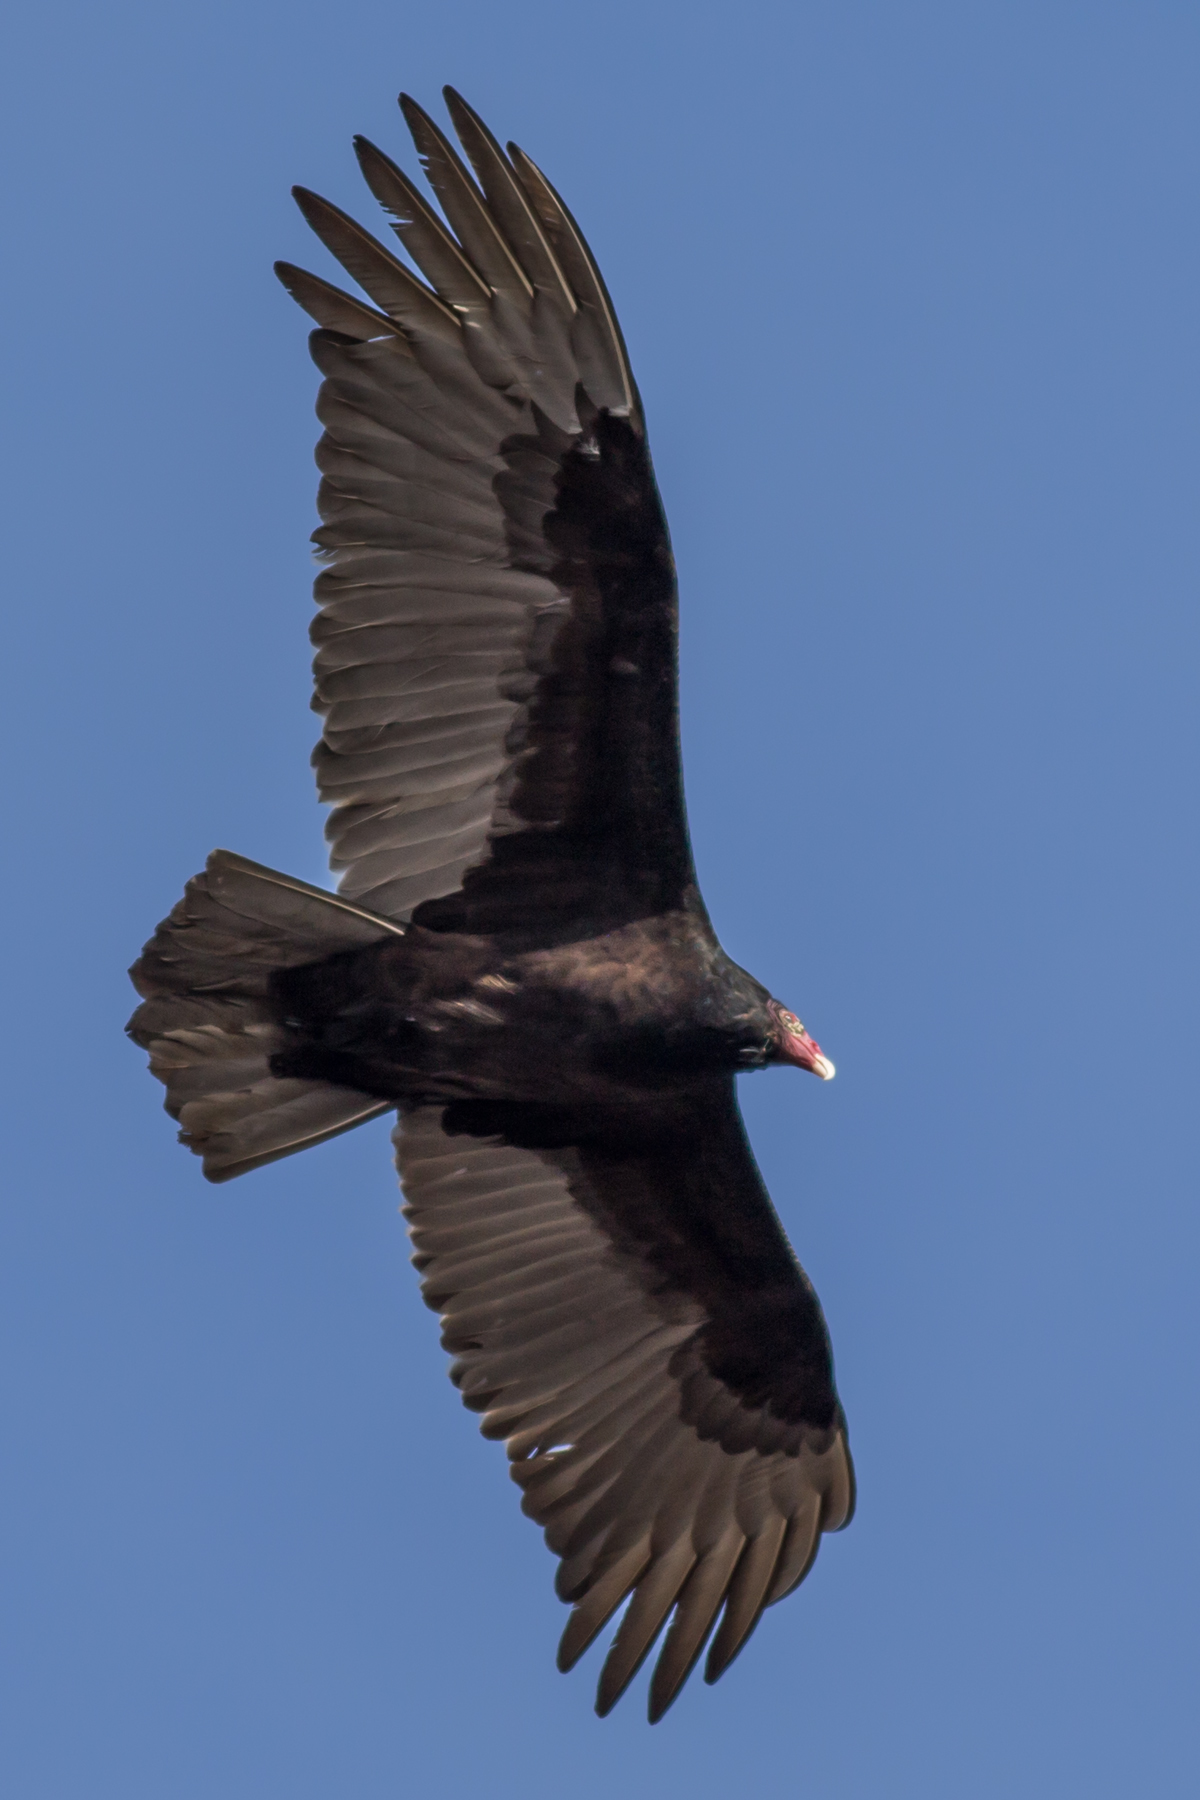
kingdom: Animalia
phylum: Chordata
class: Aves
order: Accipitriformes
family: Cathartidae
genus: Cathartes
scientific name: Cathartes aura
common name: Turkey vulture
